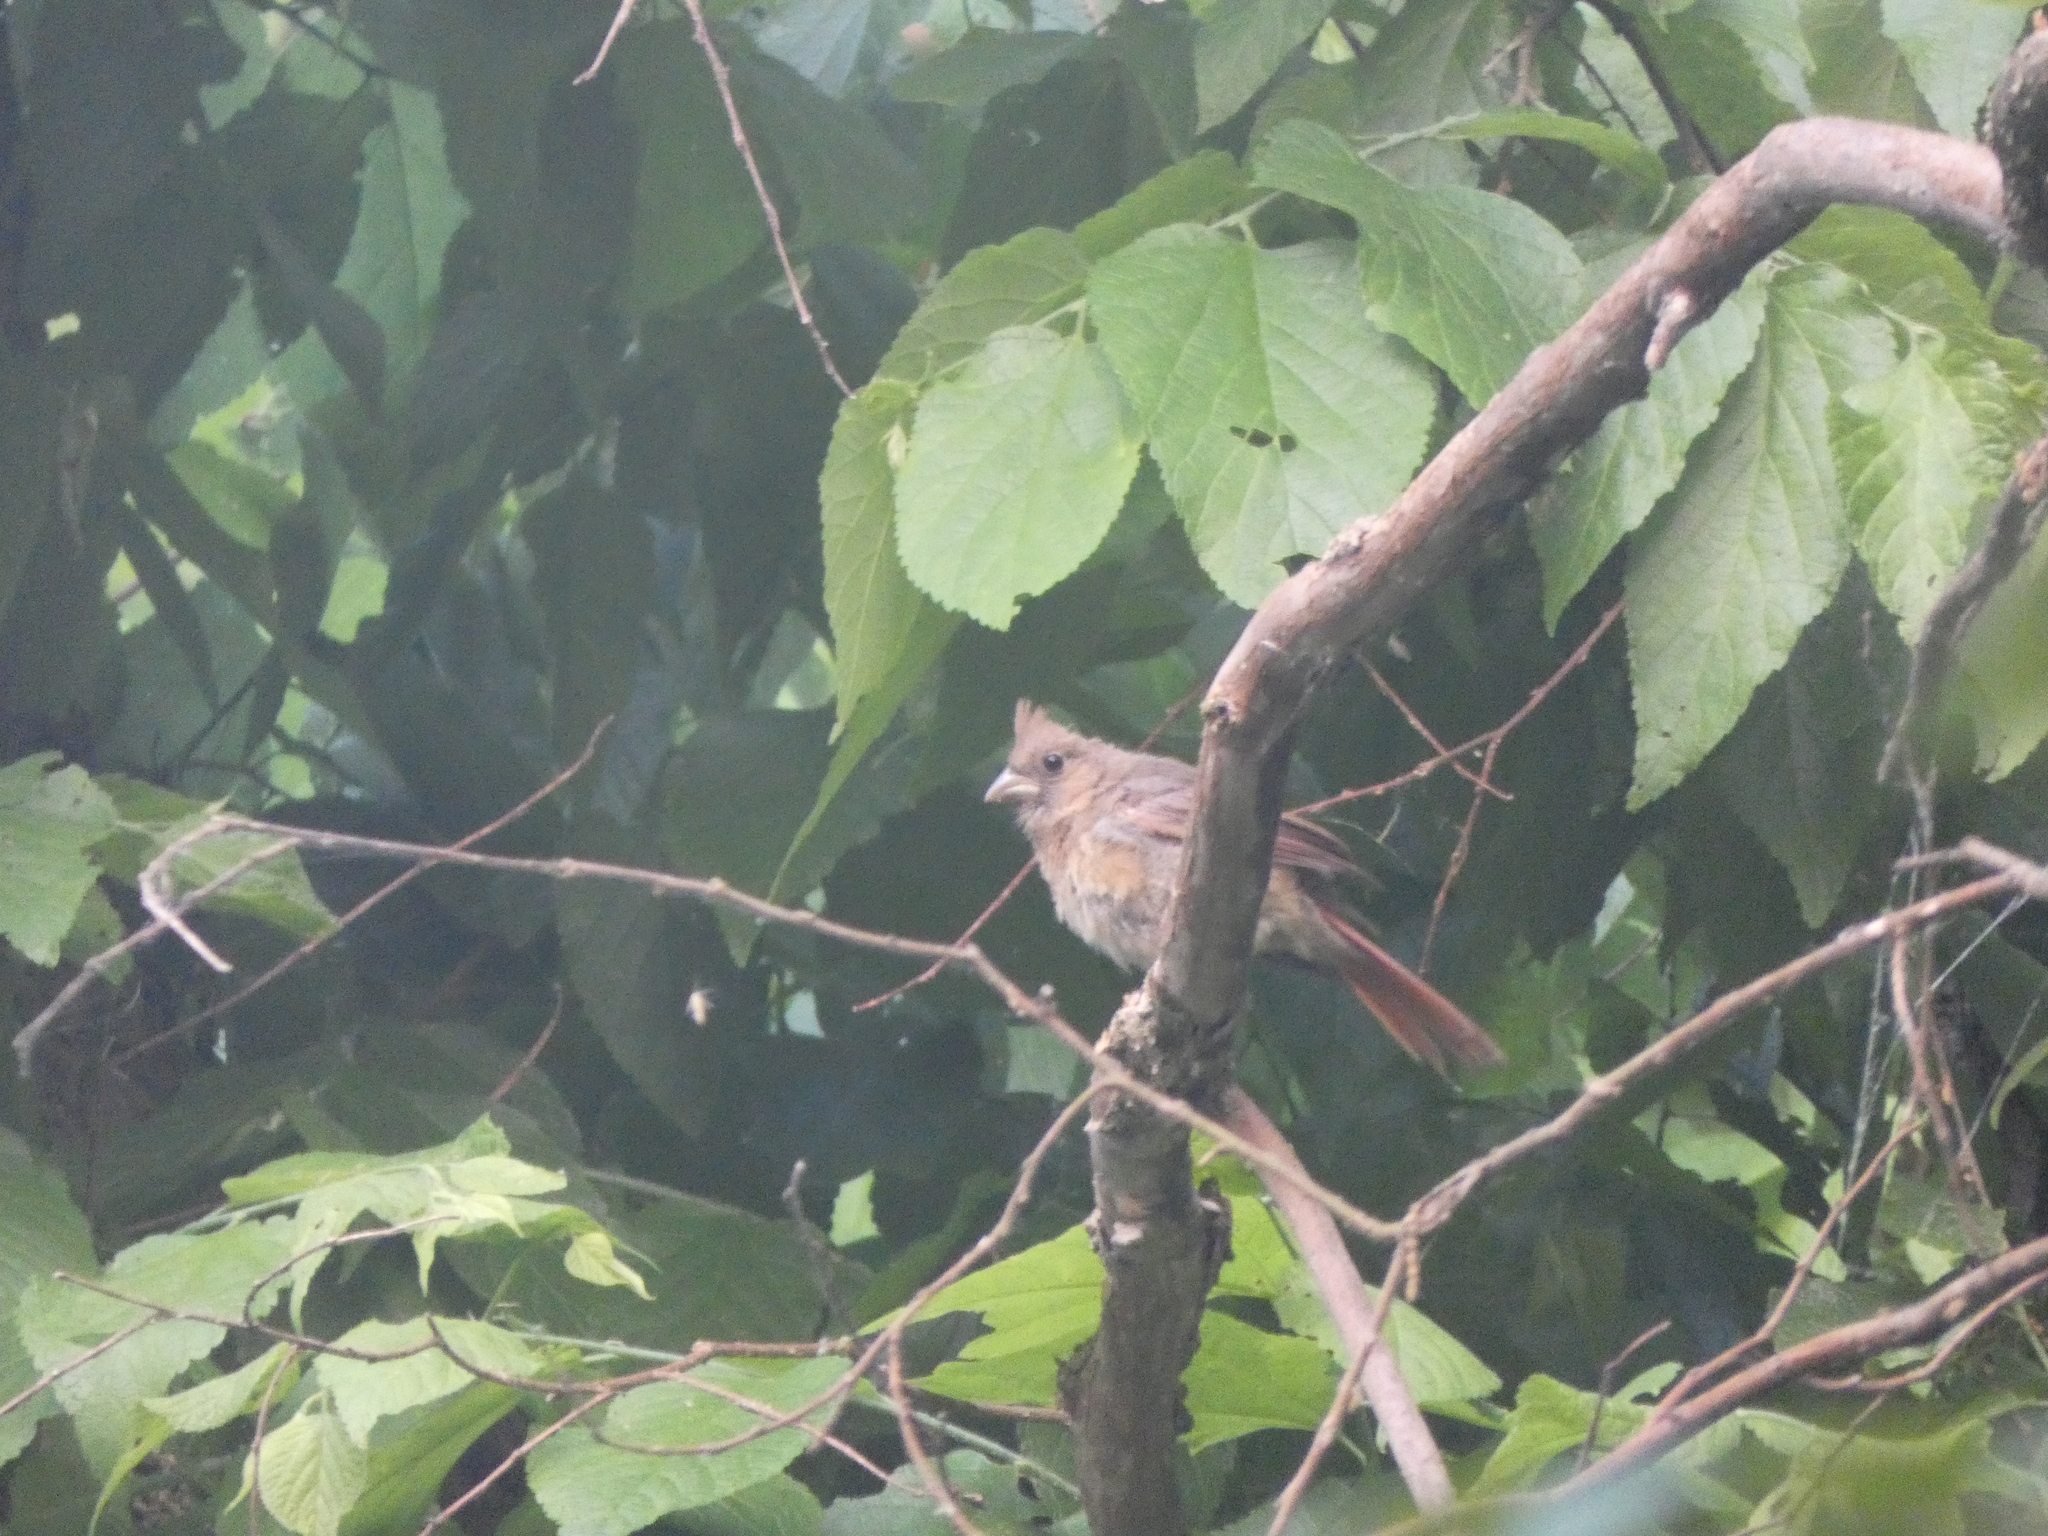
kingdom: Animalia
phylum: Chordata
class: Aves
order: Passeriformes
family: Cardinalidae
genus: Cardinalis
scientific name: Cardinalis cardinalis
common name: Northern cardinal
